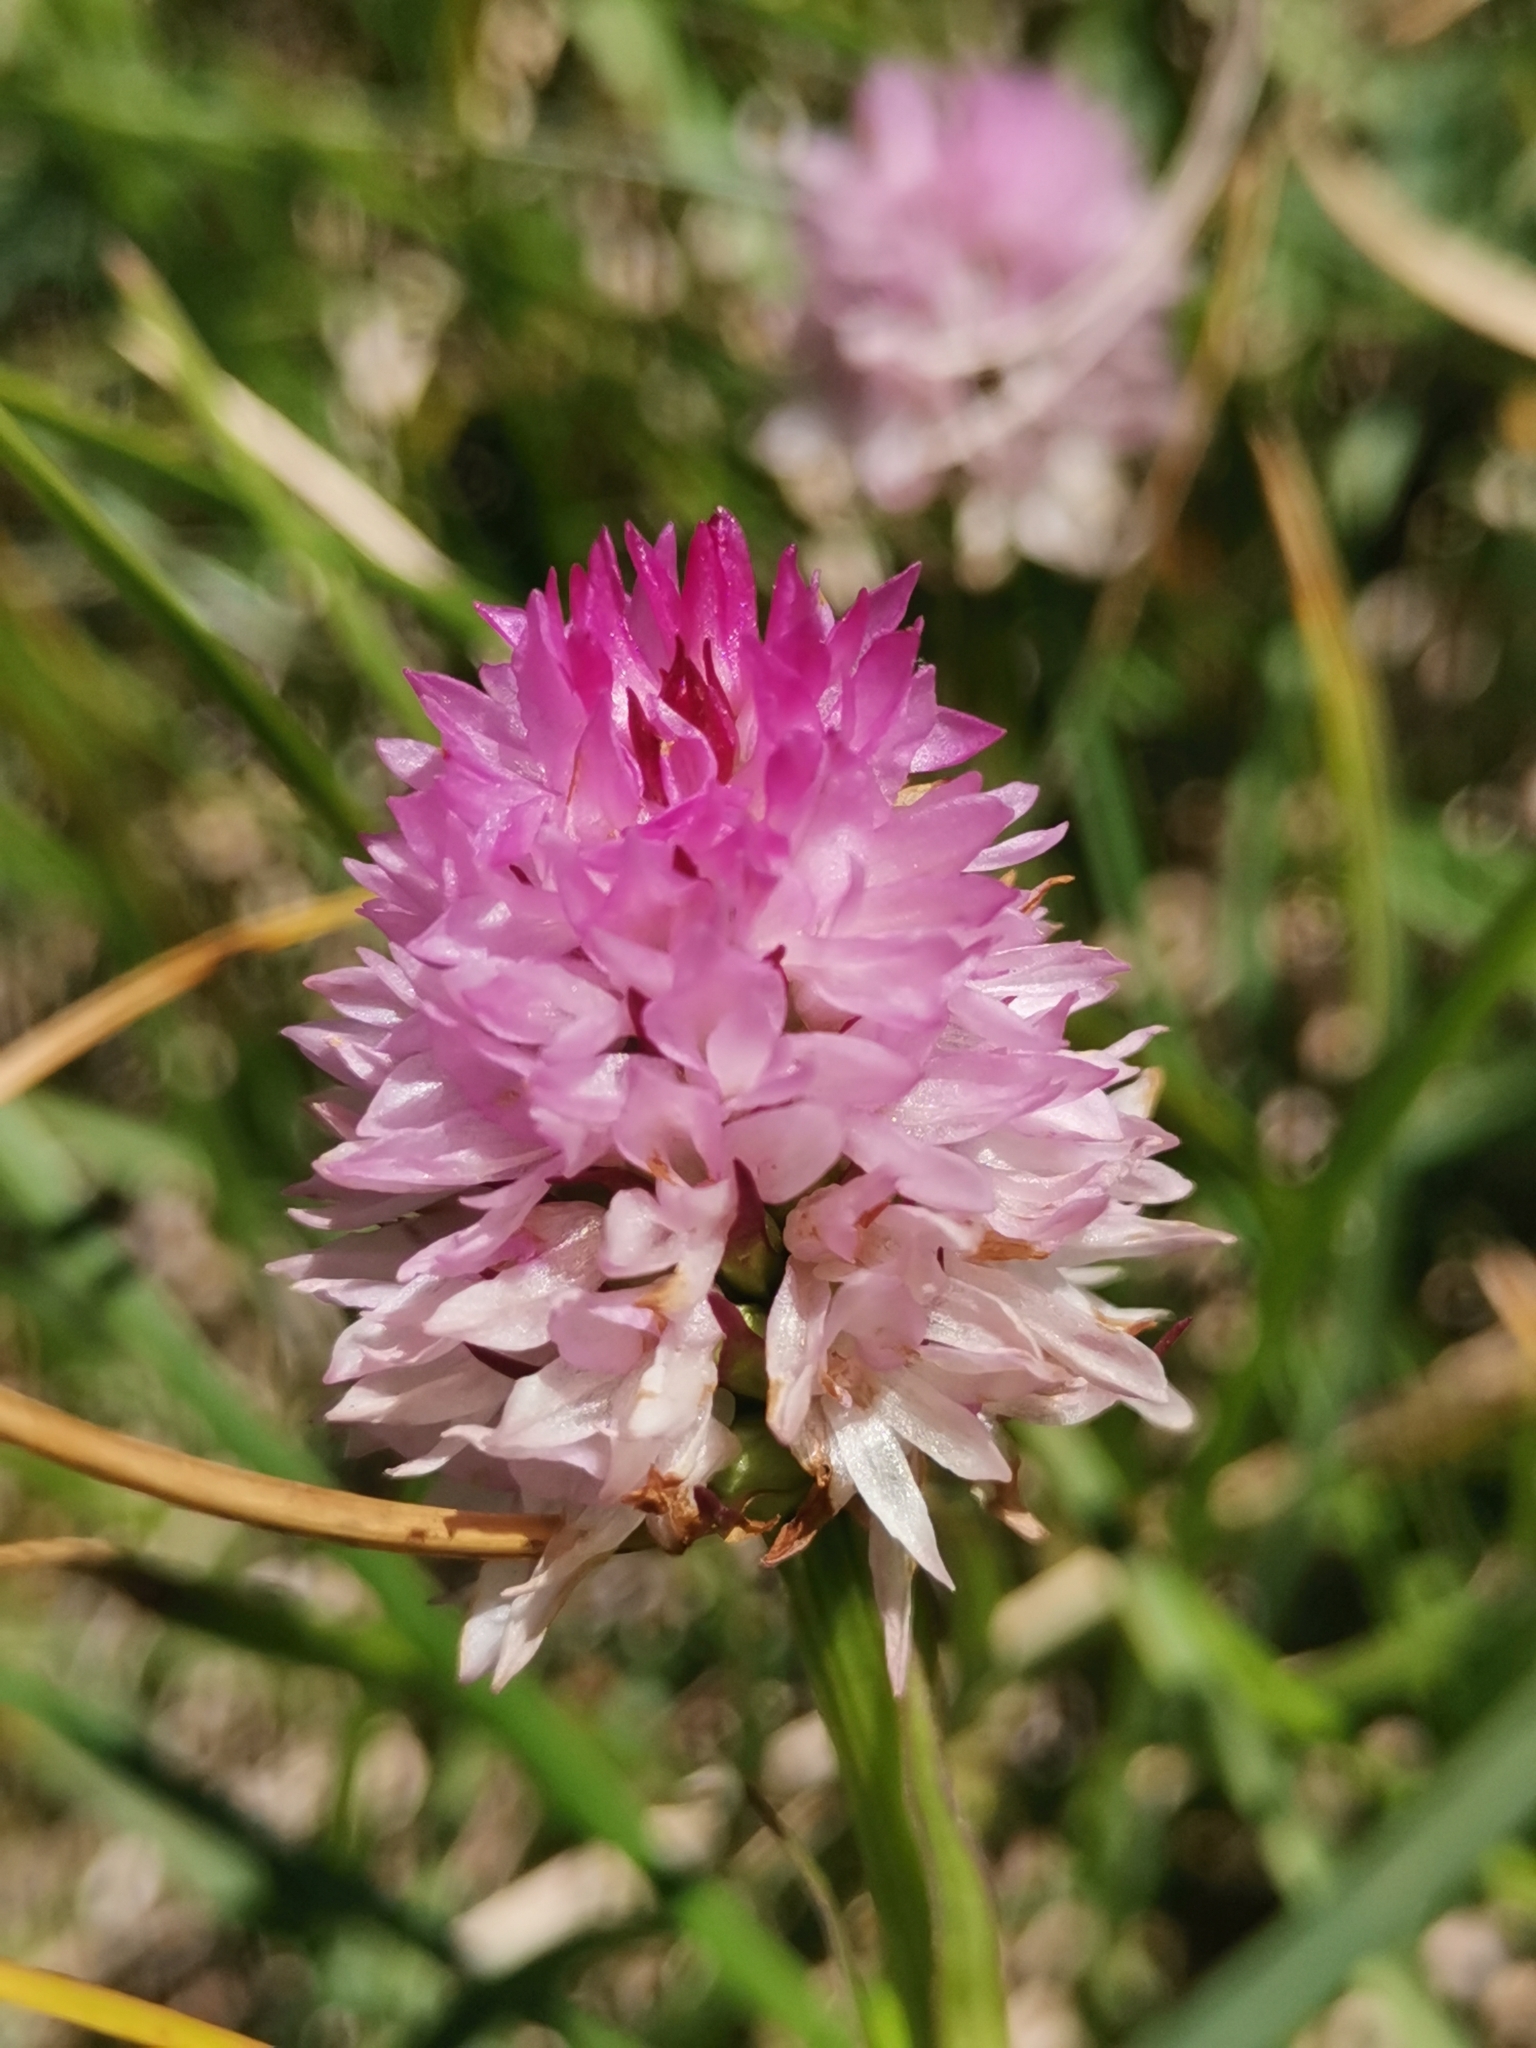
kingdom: Plantae
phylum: Tracheophyta
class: Liliopsida
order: Asparagales
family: Orchidaceae
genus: Gymnadenia
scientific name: Gymnadenia lithopolitanica
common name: Austrian gymnadenia
